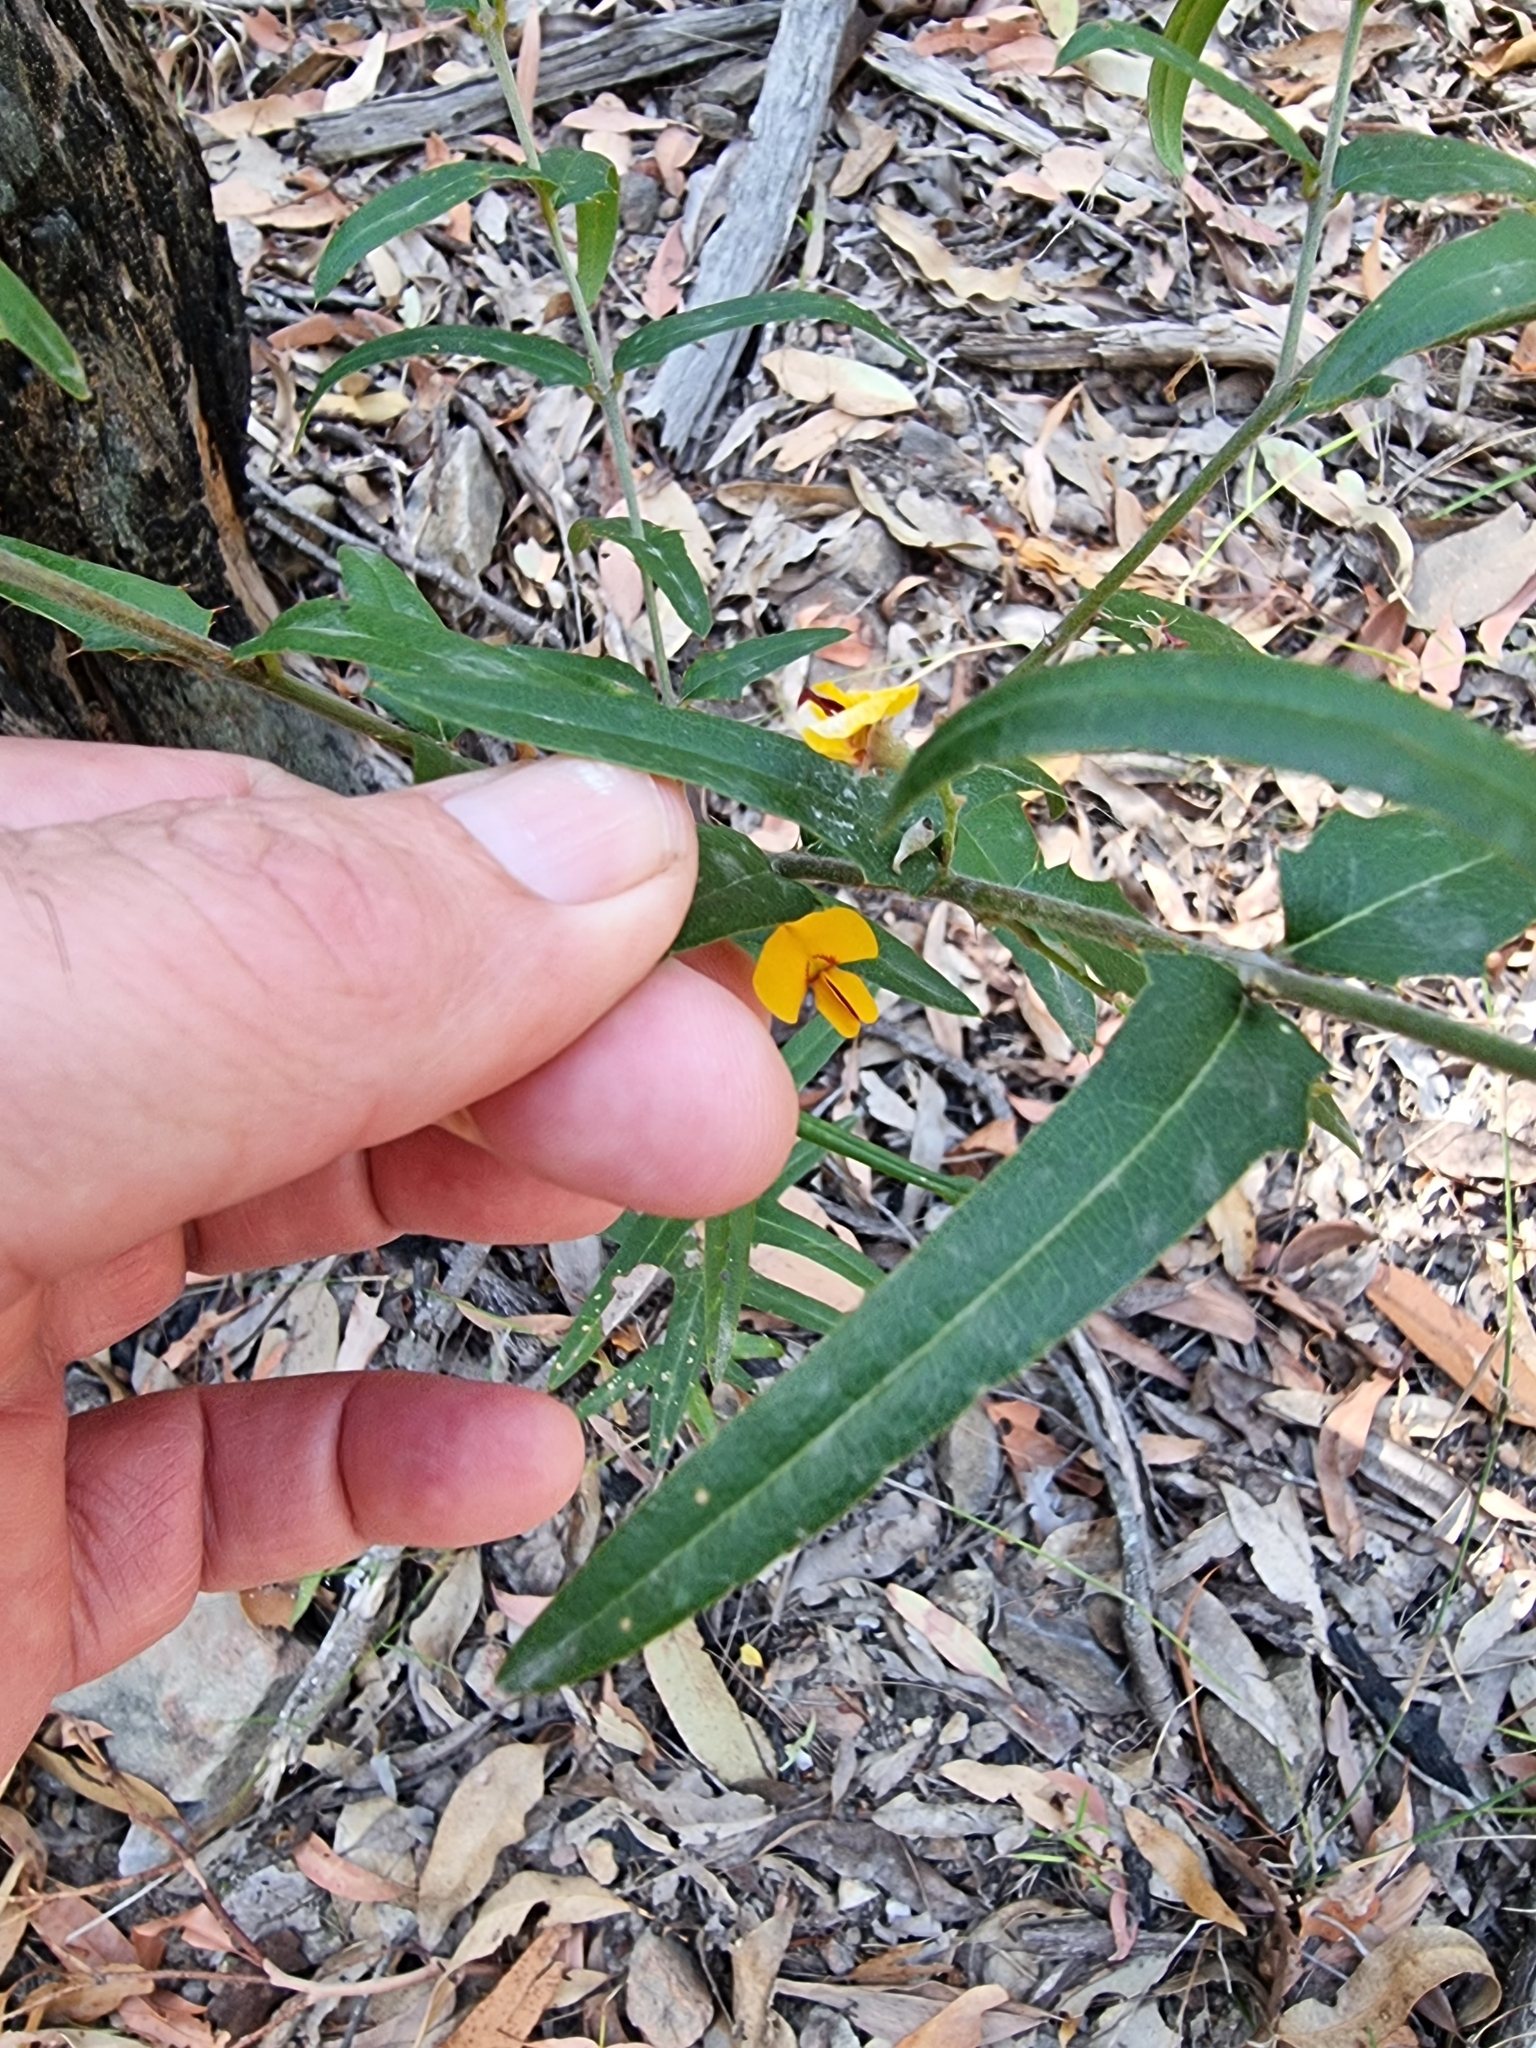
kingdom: Plantae
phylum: Tracheophyta
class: Magnoliopsida
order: Fabales
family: Fabaceae
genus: Podolobium
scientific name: Podolobium ilicifolium
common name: Native holly
